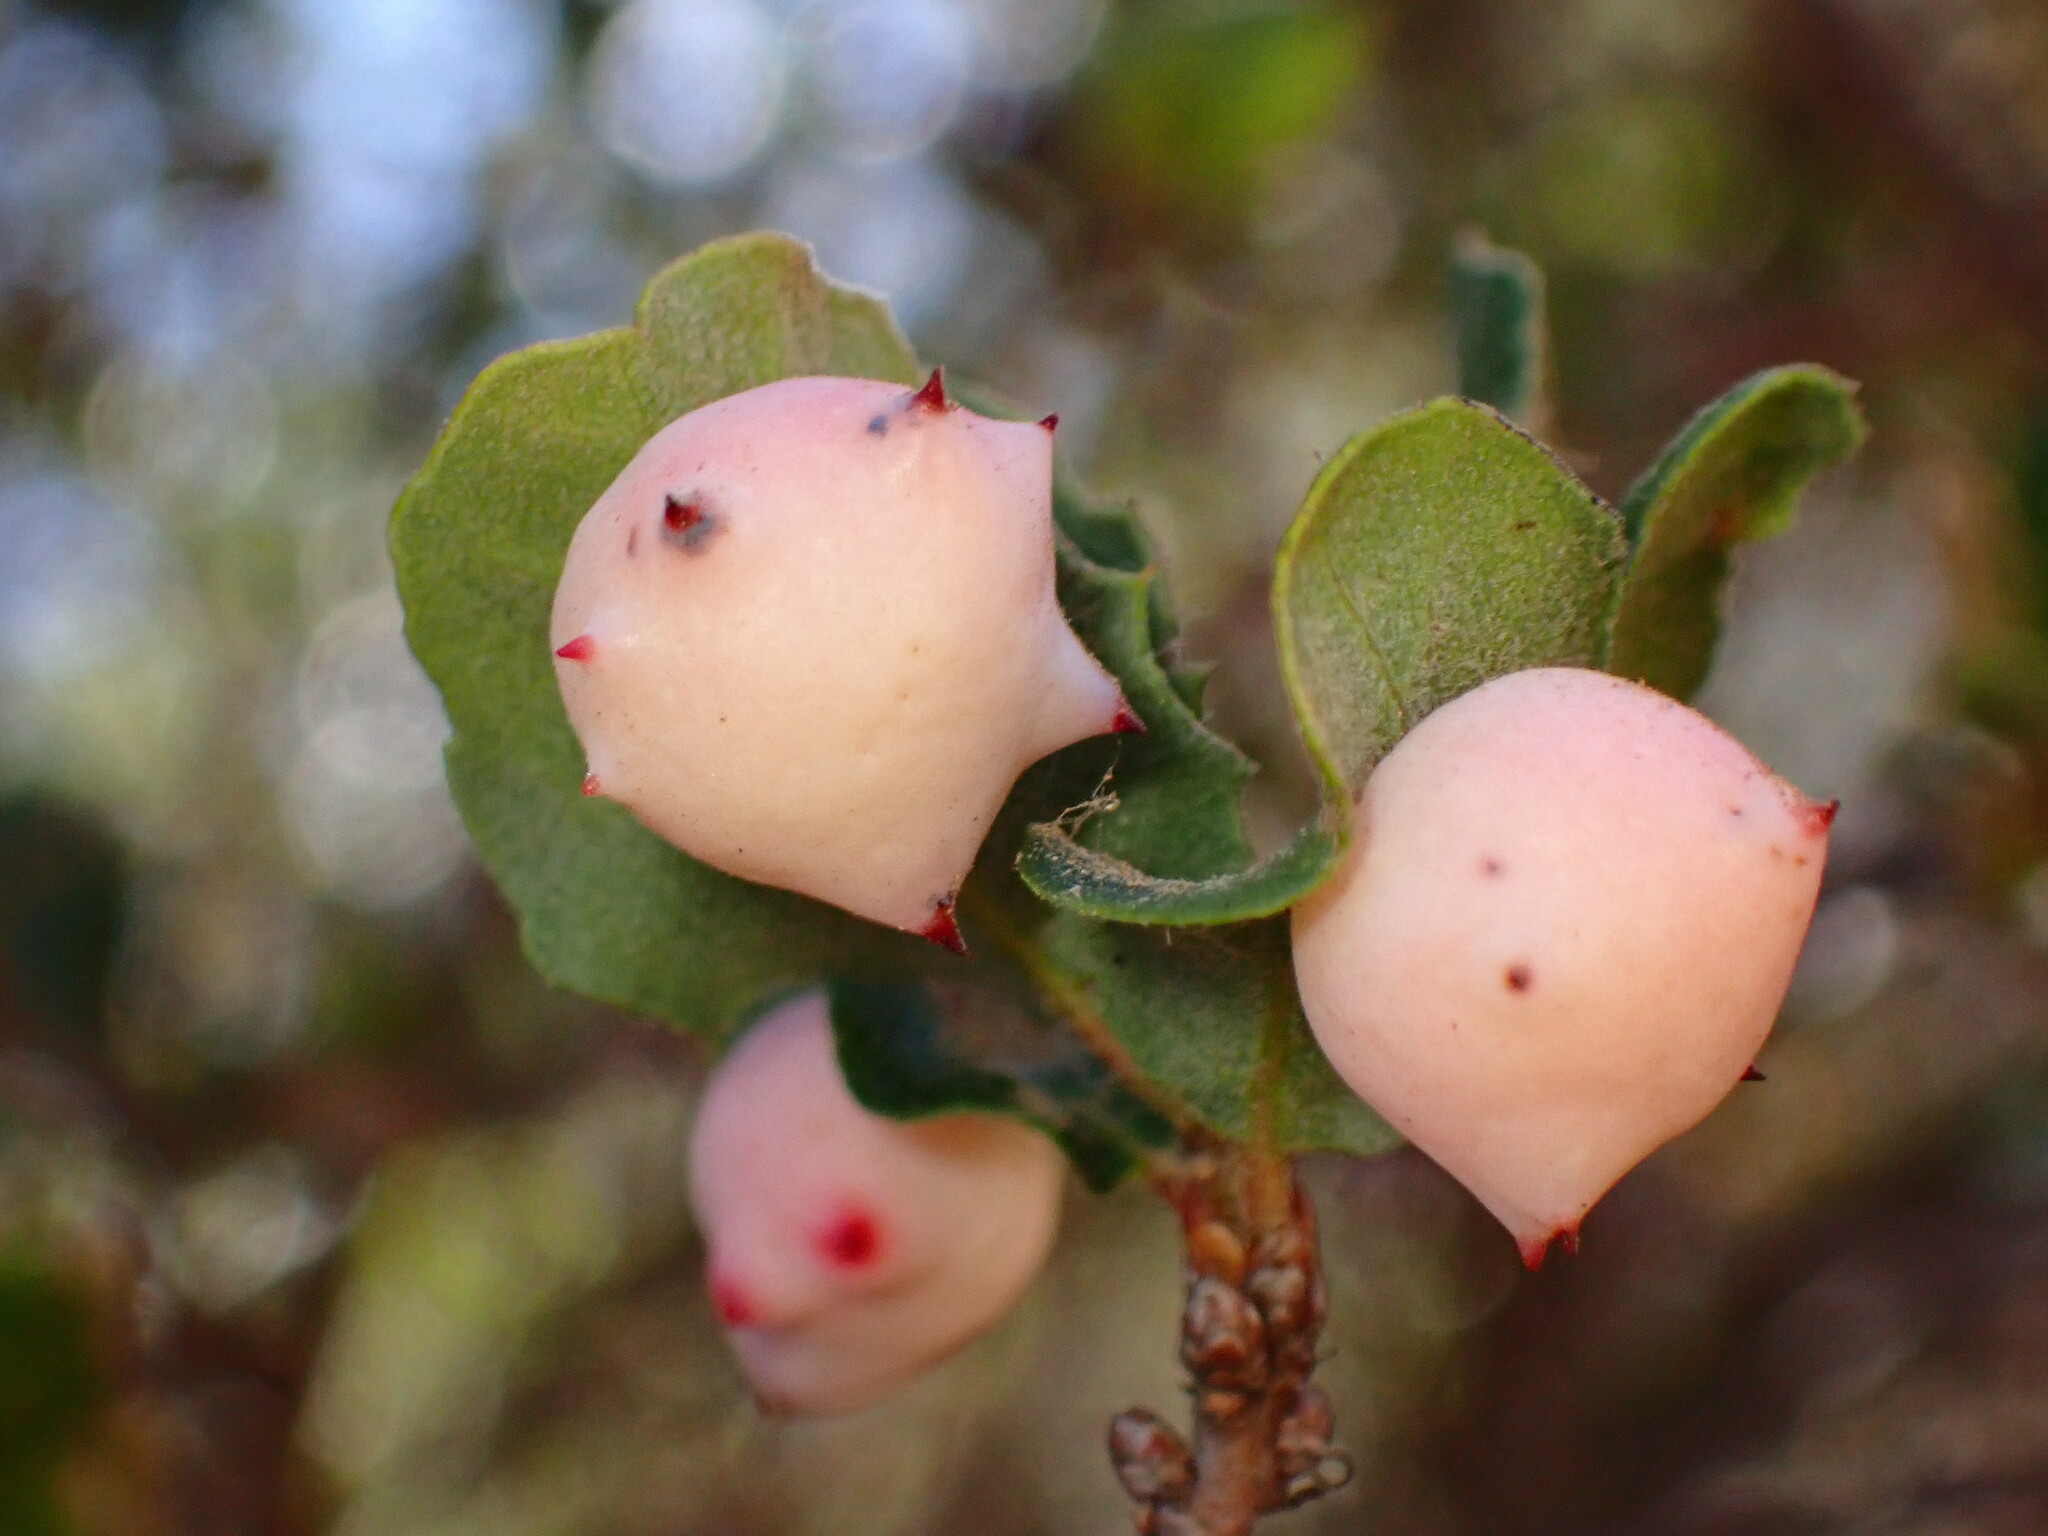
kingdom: Animalia
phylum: Arthropoda
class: Insecta
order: Hymenoptera
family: Cynipidae
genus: Cynips
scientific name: Cynips douglasi
